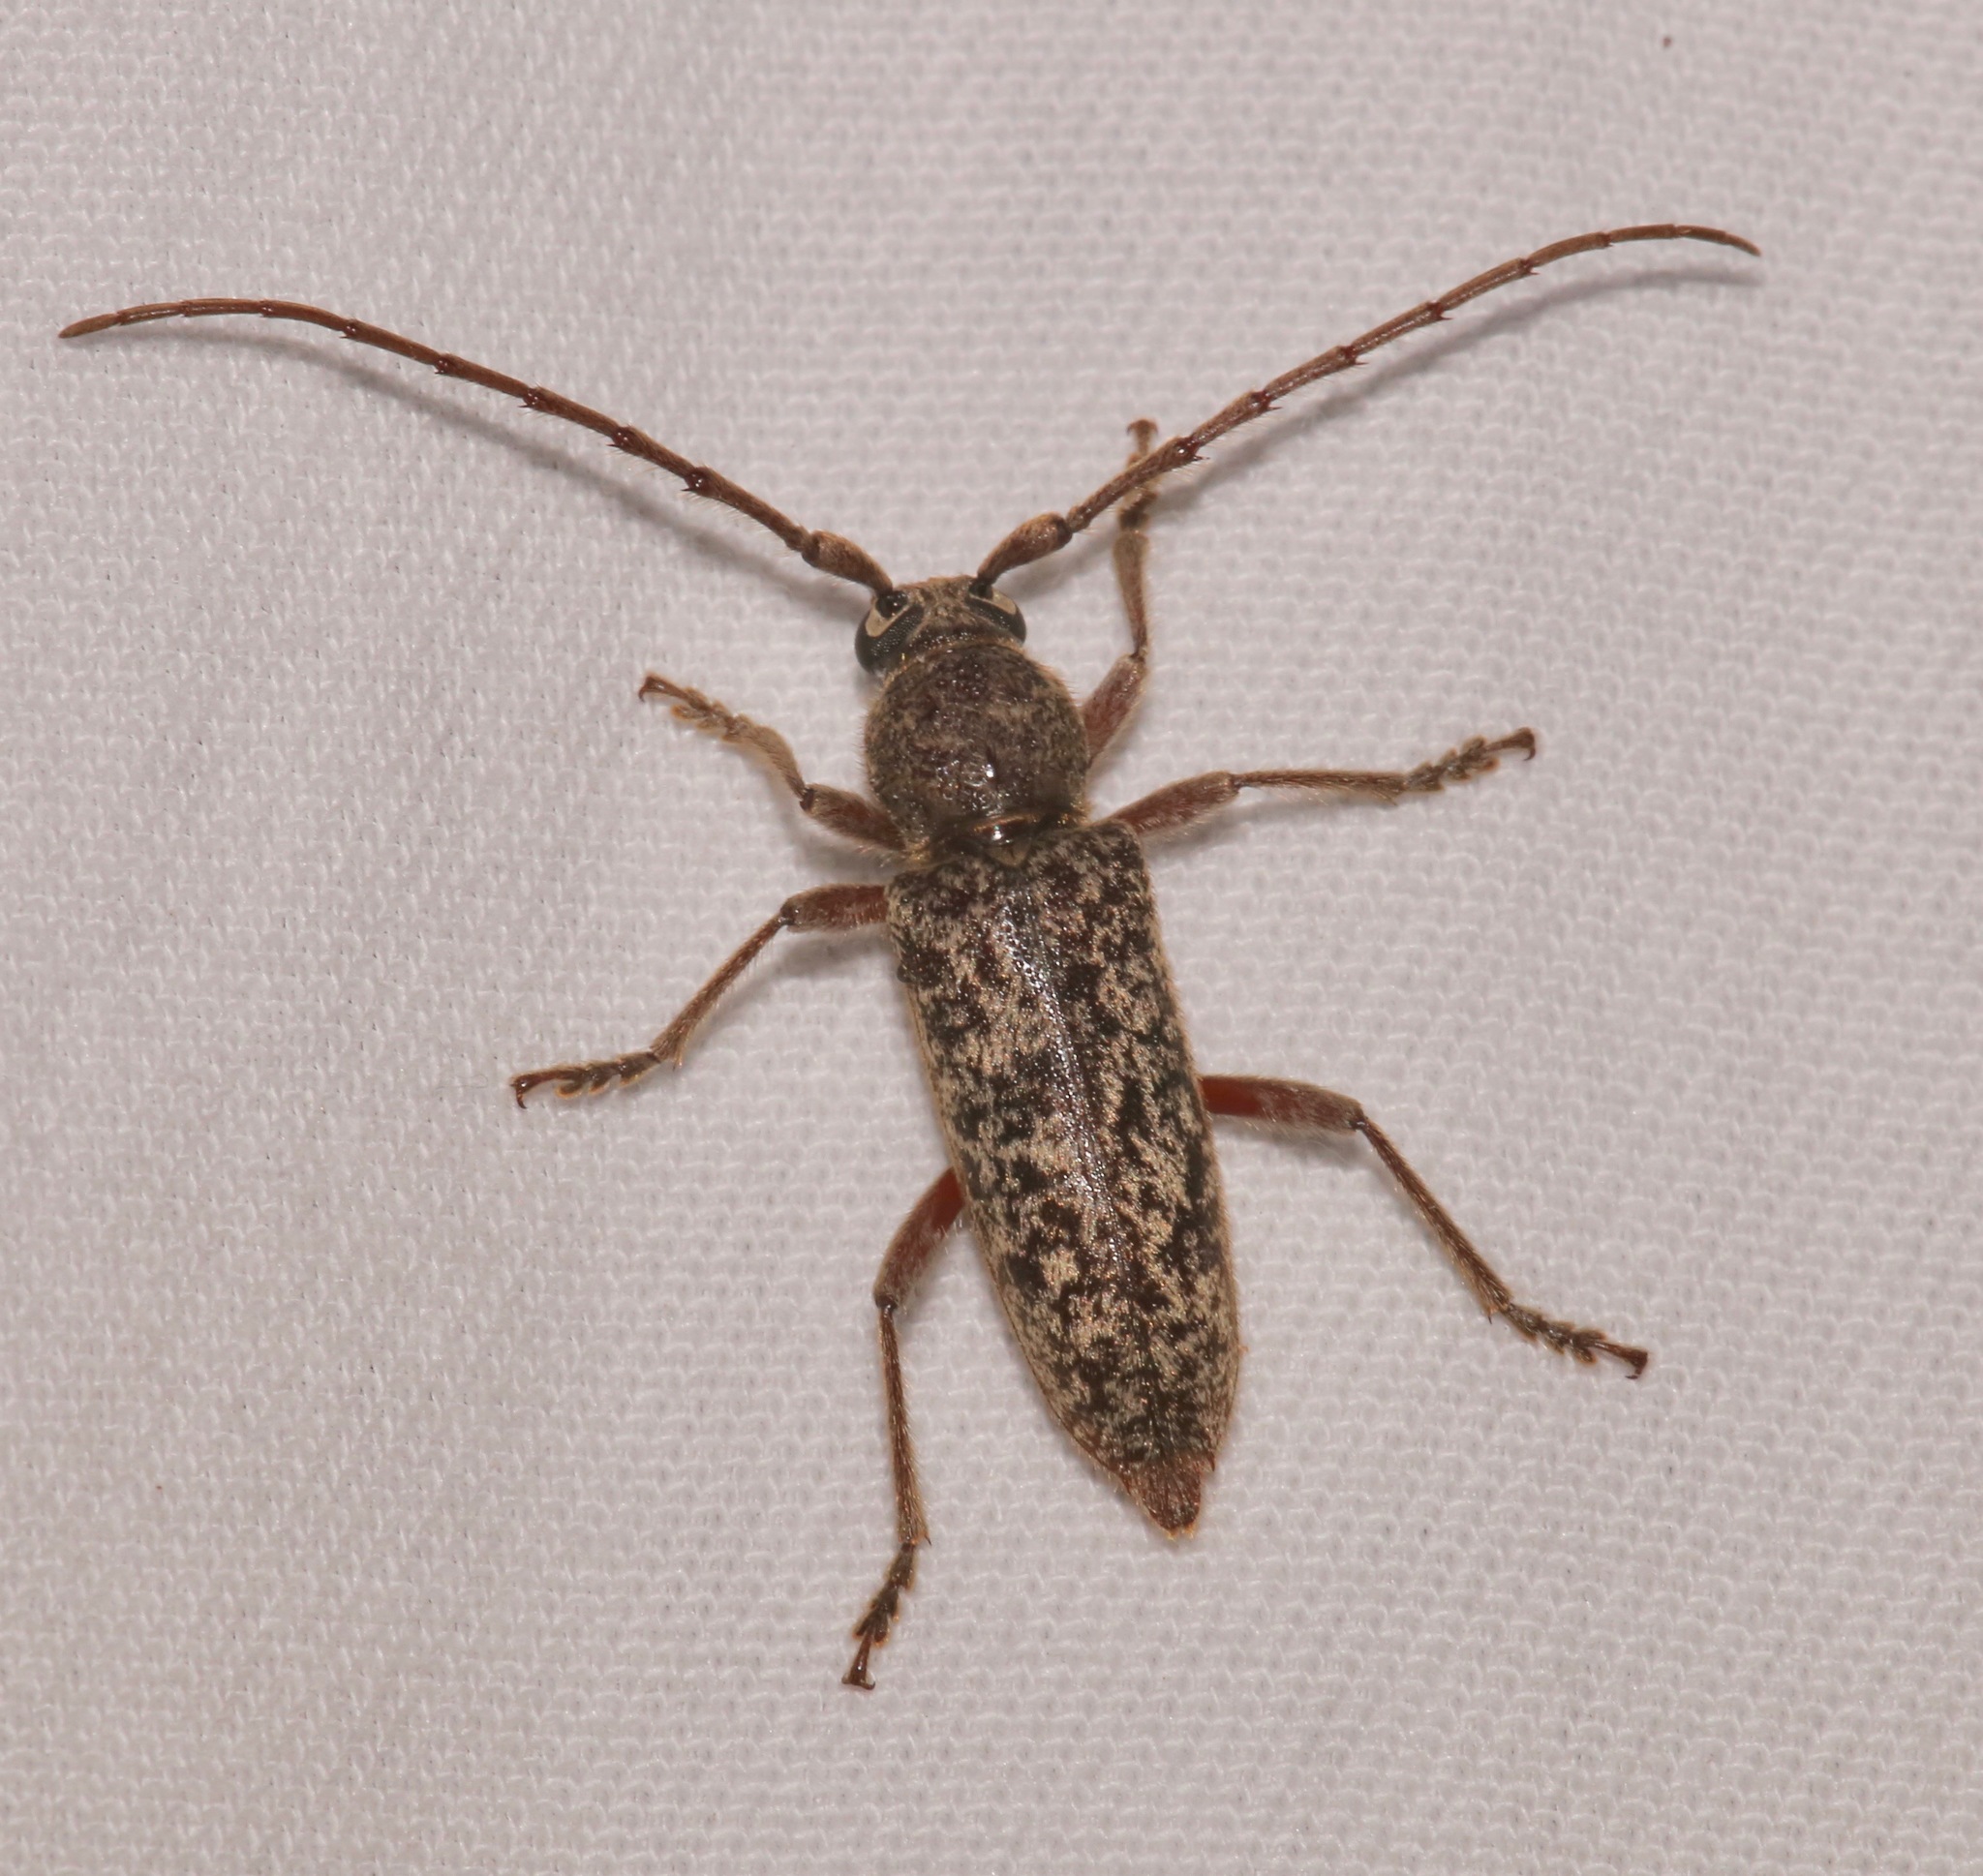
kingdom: Animalia
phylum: Arthropoda
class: Insecta
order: Coleoptera
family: Cerambycidae
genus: Enaphalodes
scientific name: Enaphalodes atomarius
